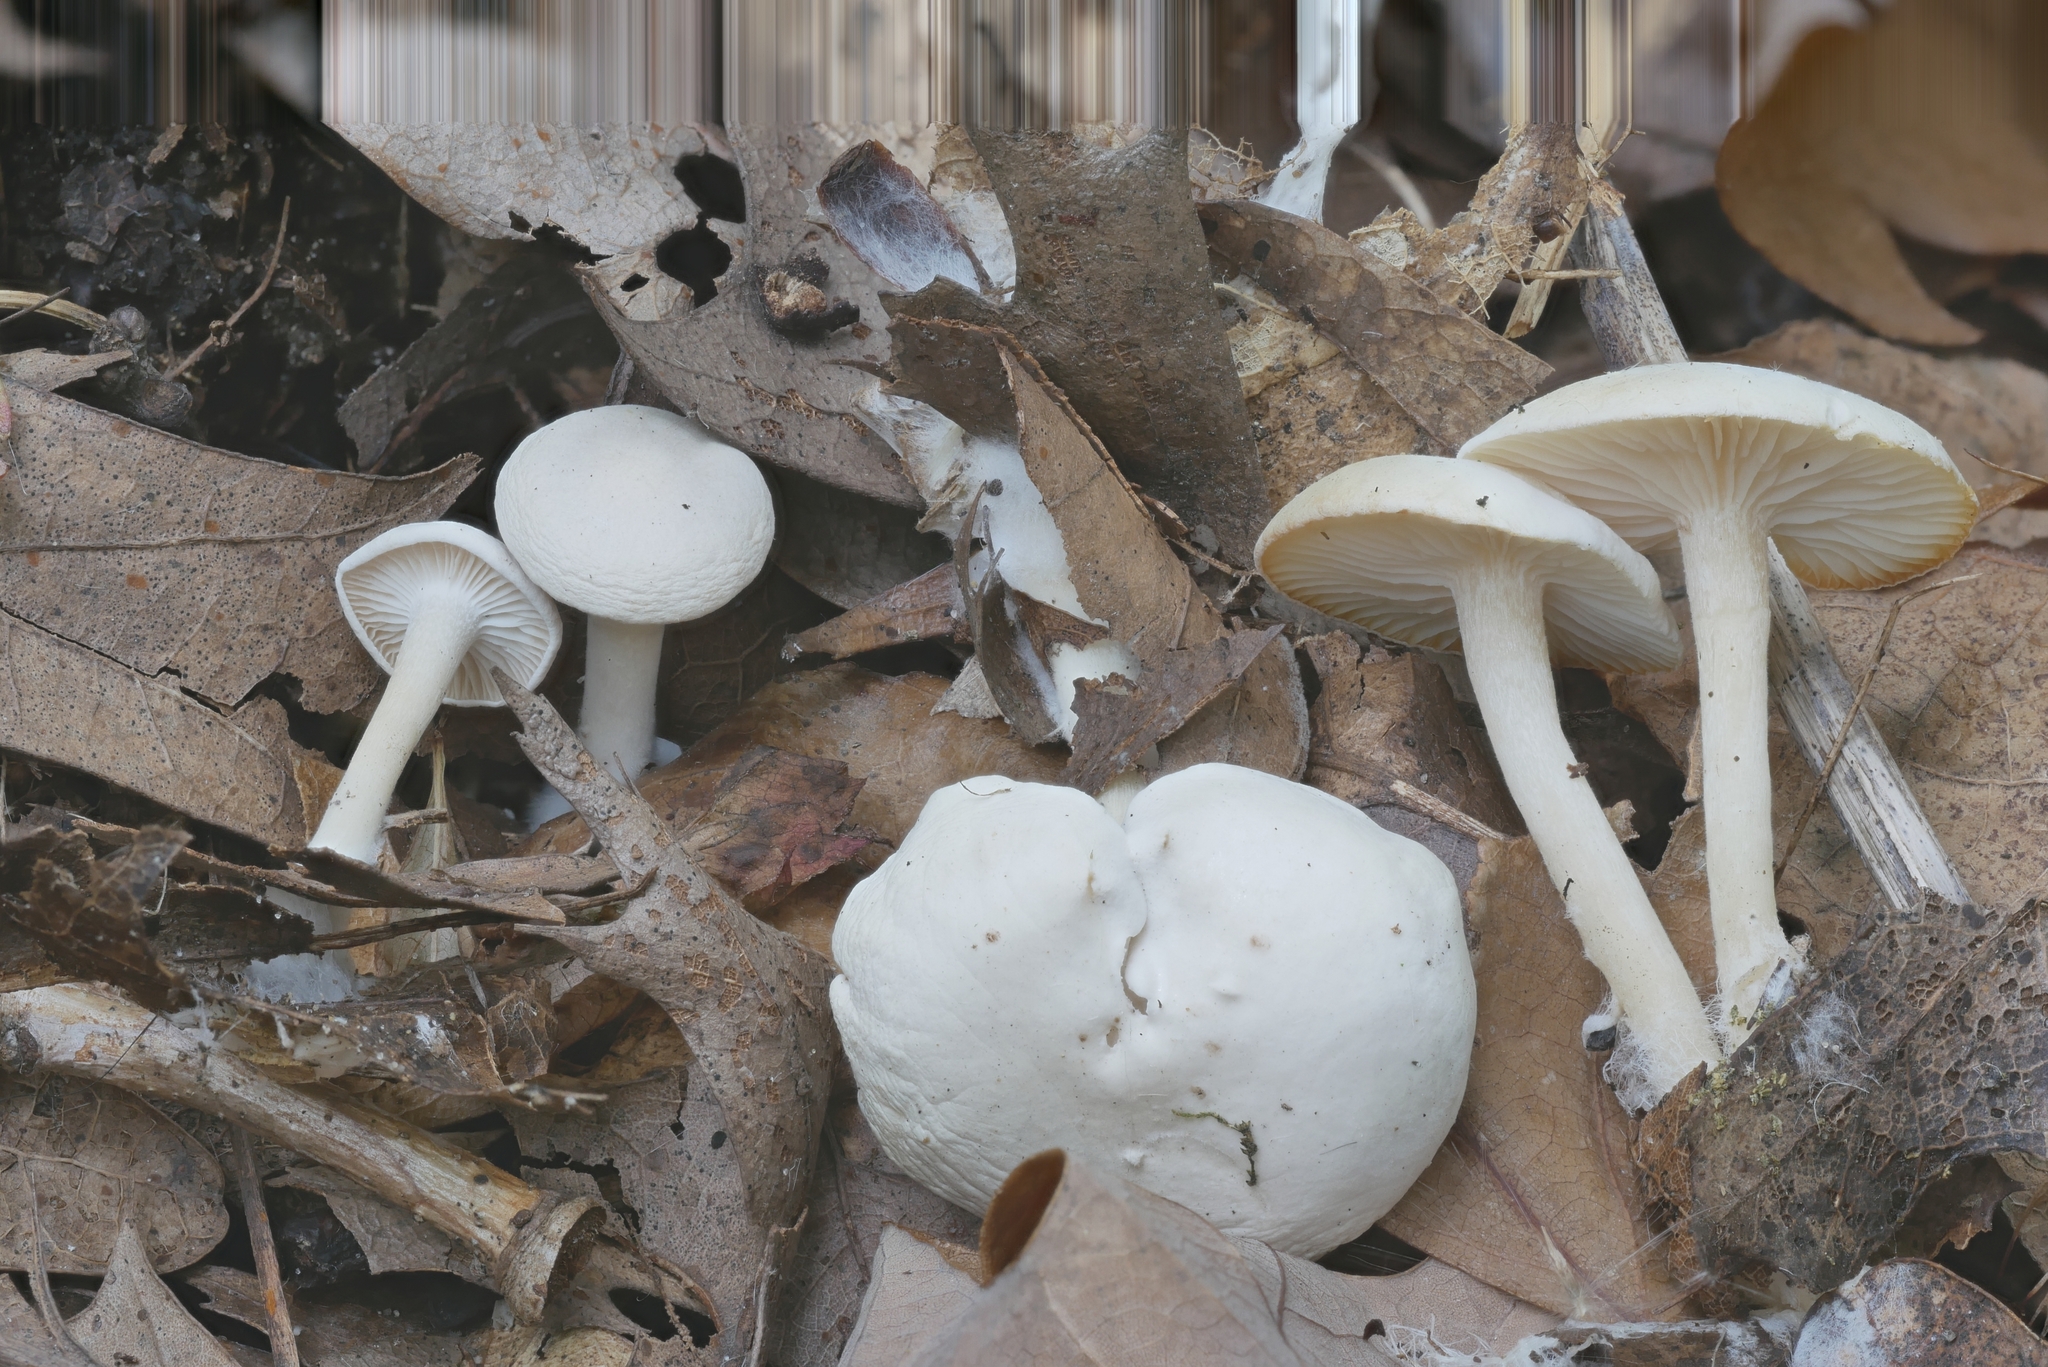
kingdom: Fungi
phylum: Basidiomycota
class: Agaricomycetes
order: Agaricales
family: Tricholomataceae
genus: Leucocybe
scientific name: Leucocybe candicans
